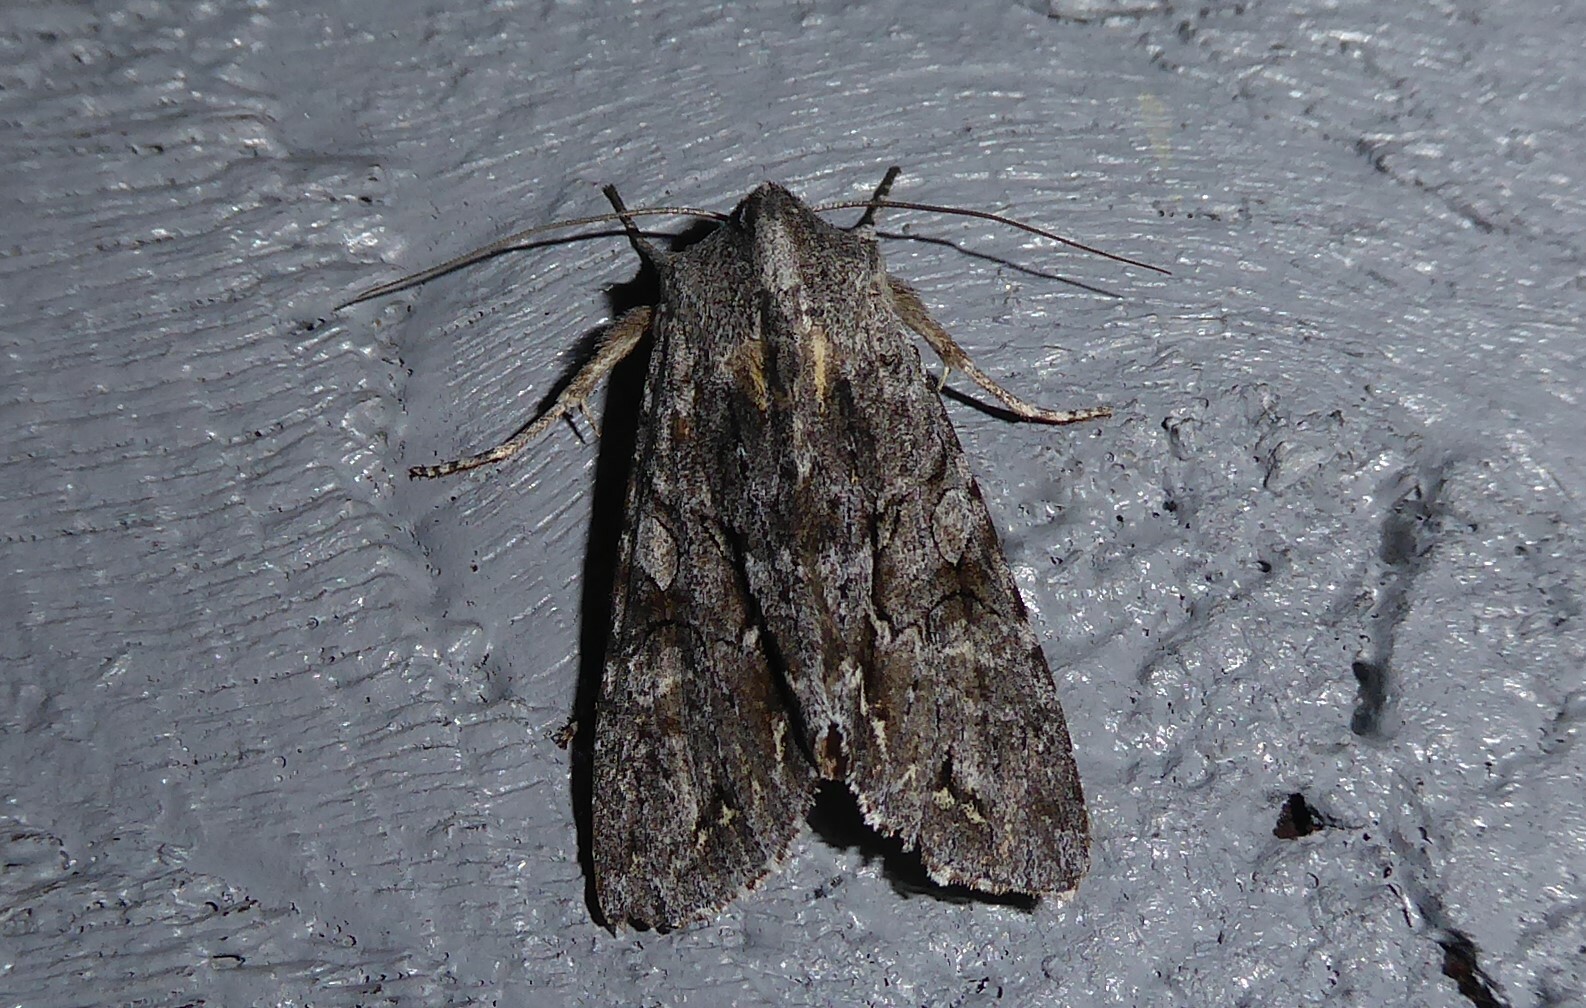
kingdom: Animalia
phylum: Arthropoda
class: Insecta
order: Lepidoptera
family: Noctuidae
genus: Ichneutica
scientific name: Ichneutica
